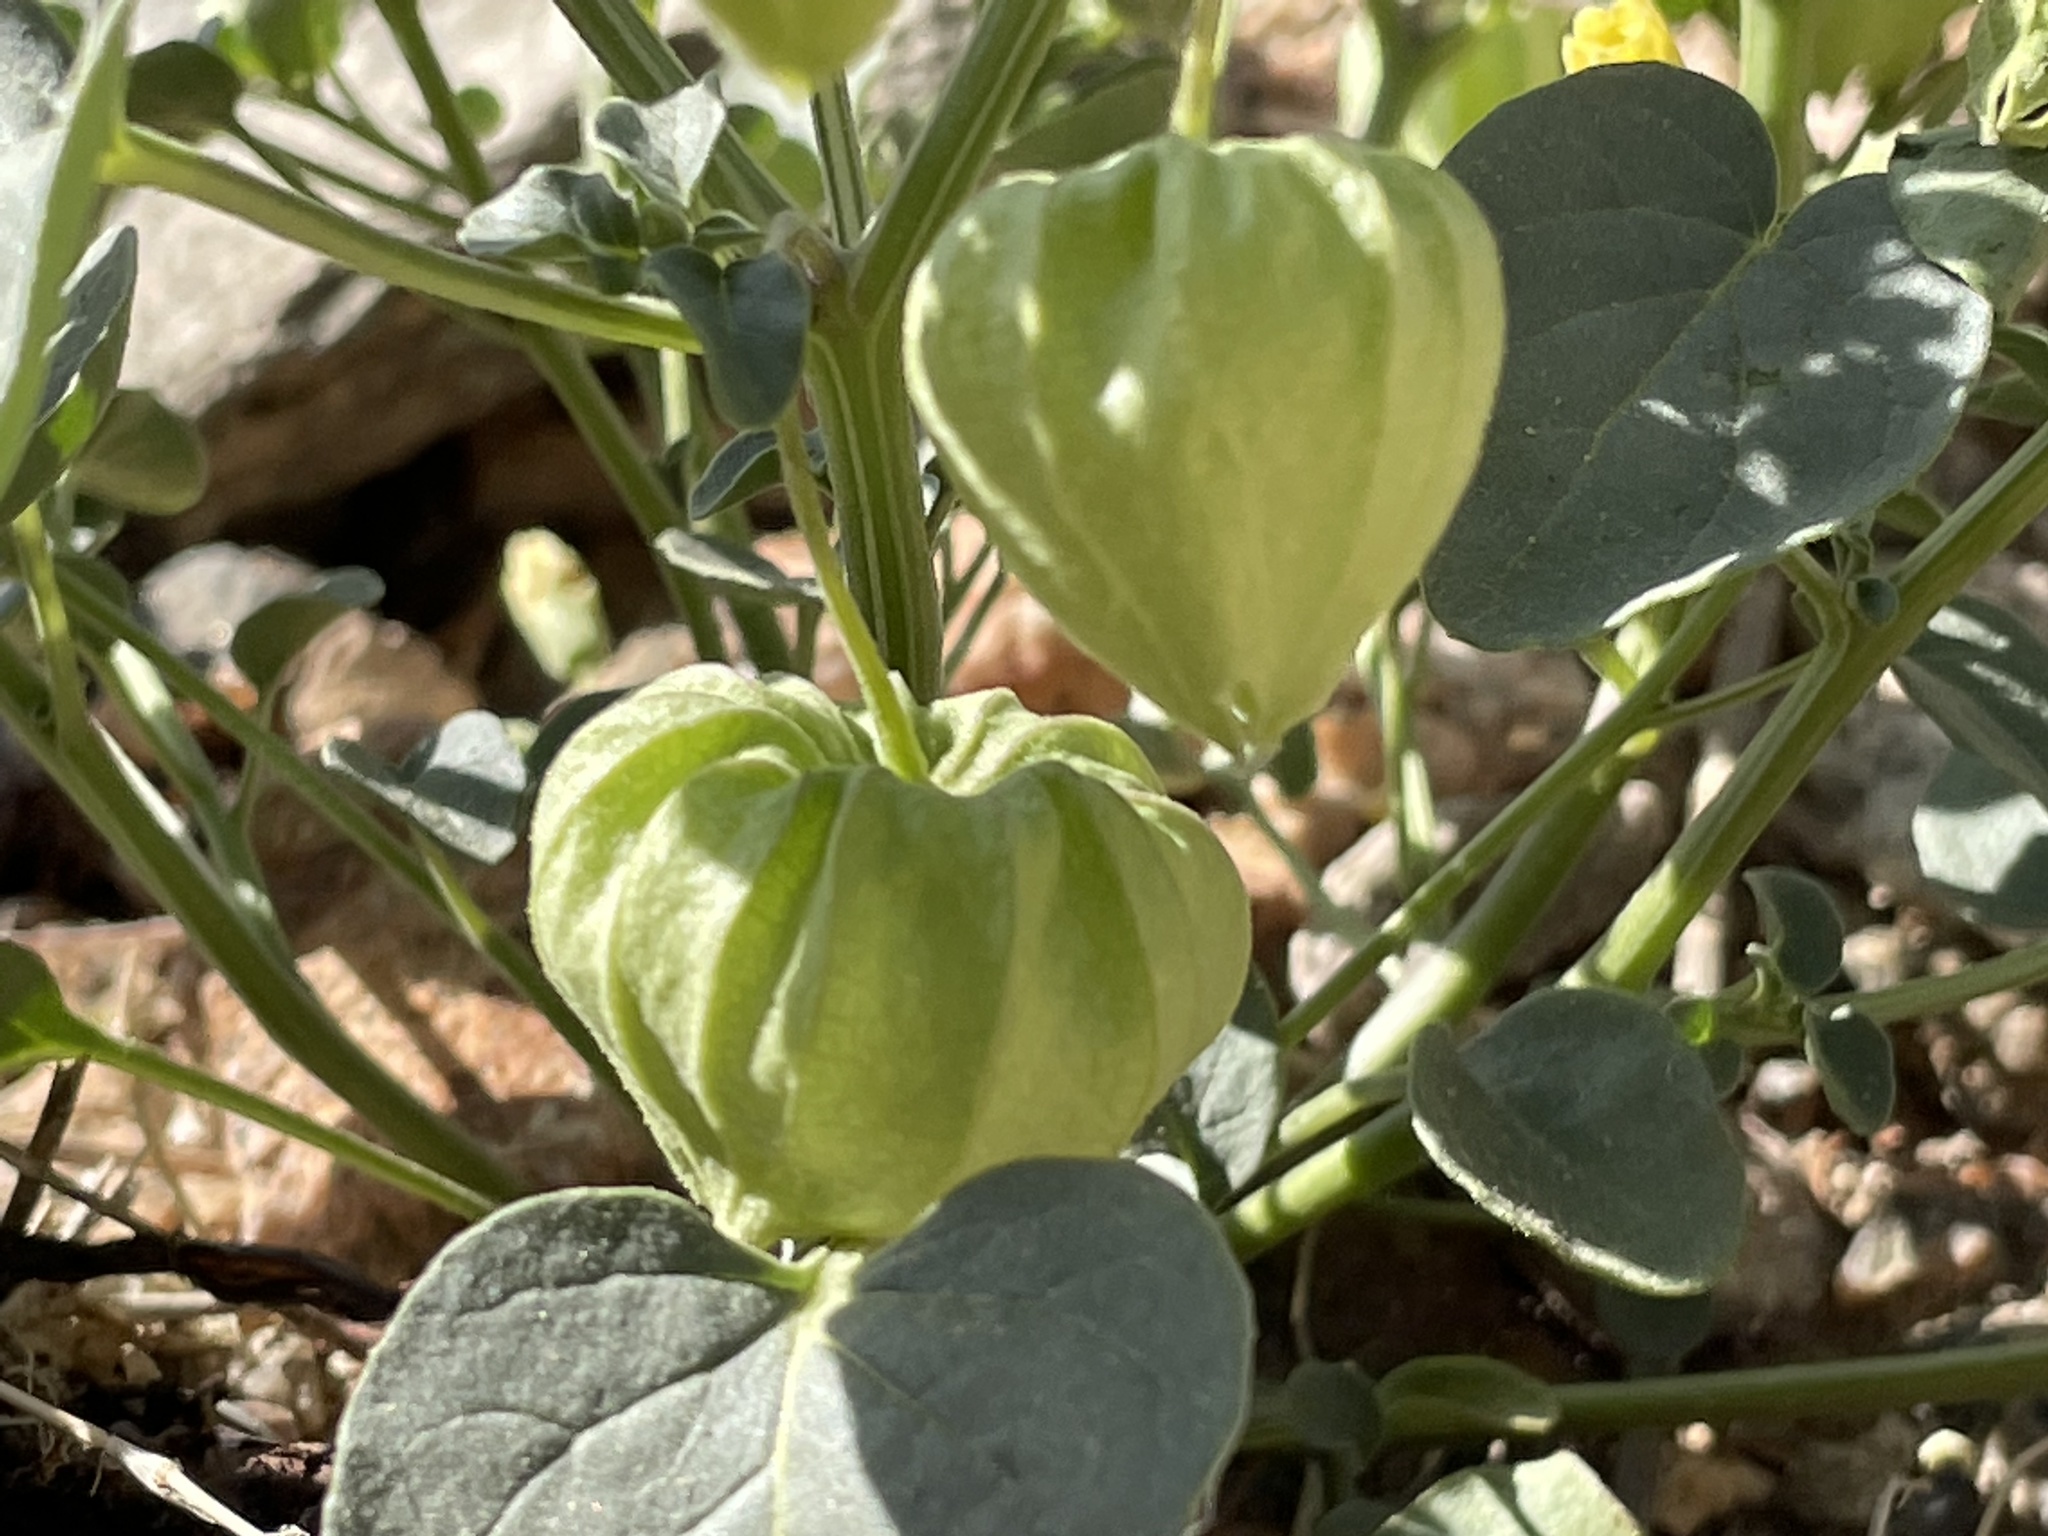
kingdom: Plantae
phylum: Tracheophyta
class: Magnoliopsida
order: Solanales
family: Solanaceae
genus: Physalis
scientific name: Physalis crassifolia
